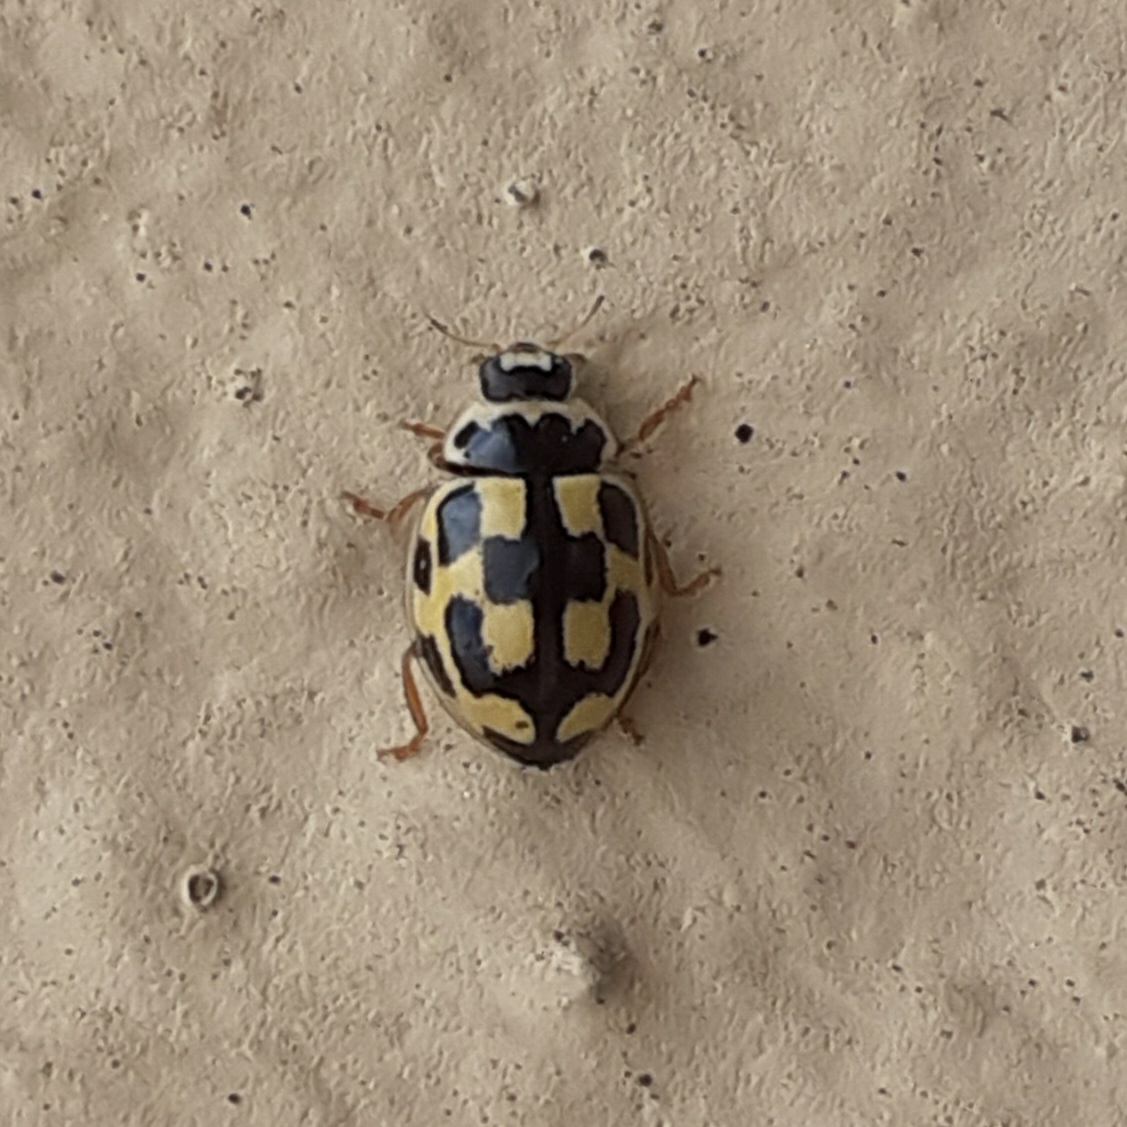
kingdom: Animalia
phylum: Arthropoda
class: Insecta
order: Coleoptera
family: Coccinellidae
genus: Propylaea
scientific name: Propylaea quatuordecimpunctata
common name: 14-spotted ladybird beetle
